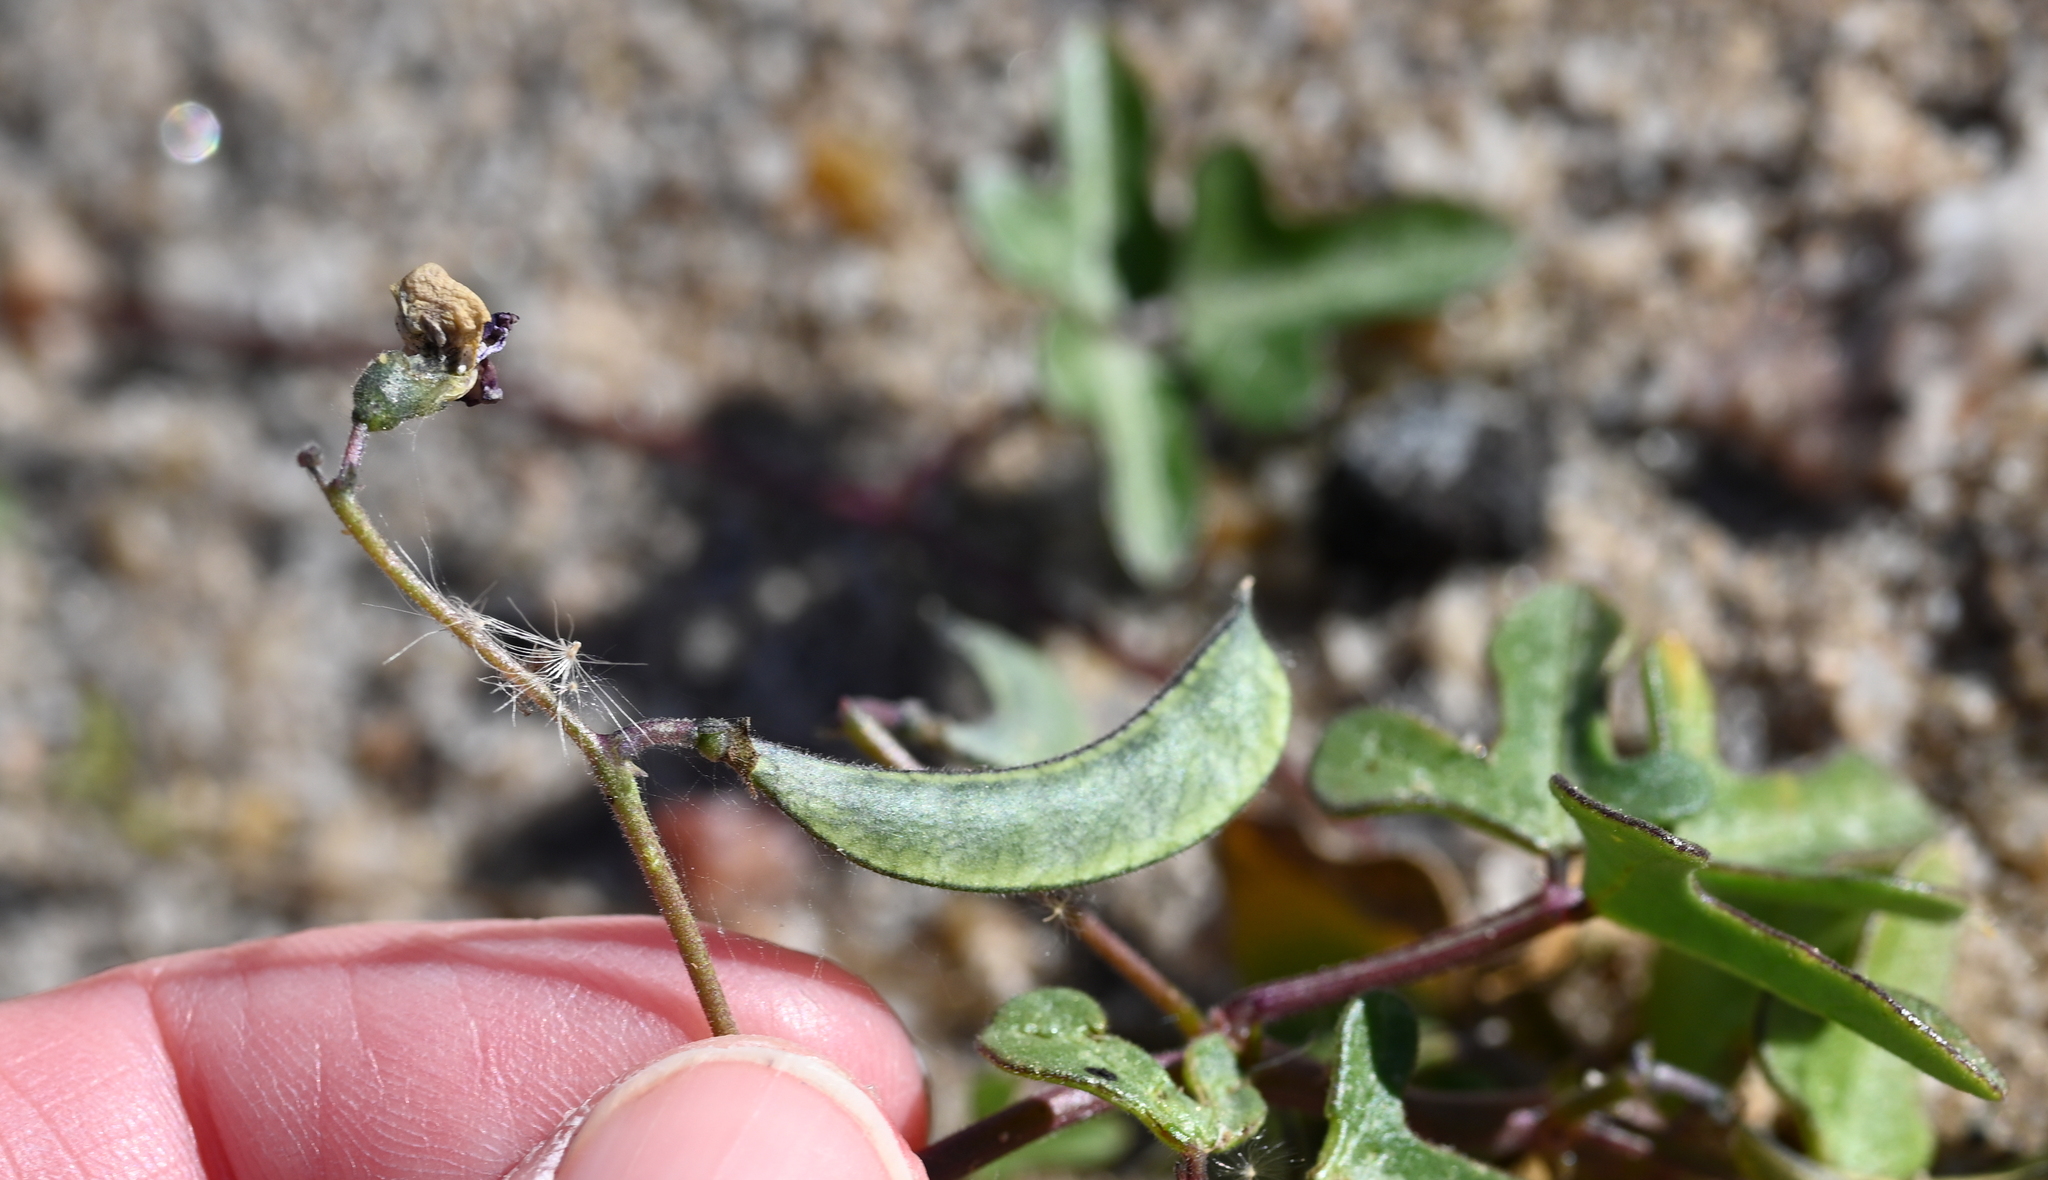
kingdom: Plantae
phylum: Tracheophyta
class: Magnoliopsida
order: Fabales
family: Fabaceae
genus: Phaseolus
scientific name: Phaseolus filiformis
